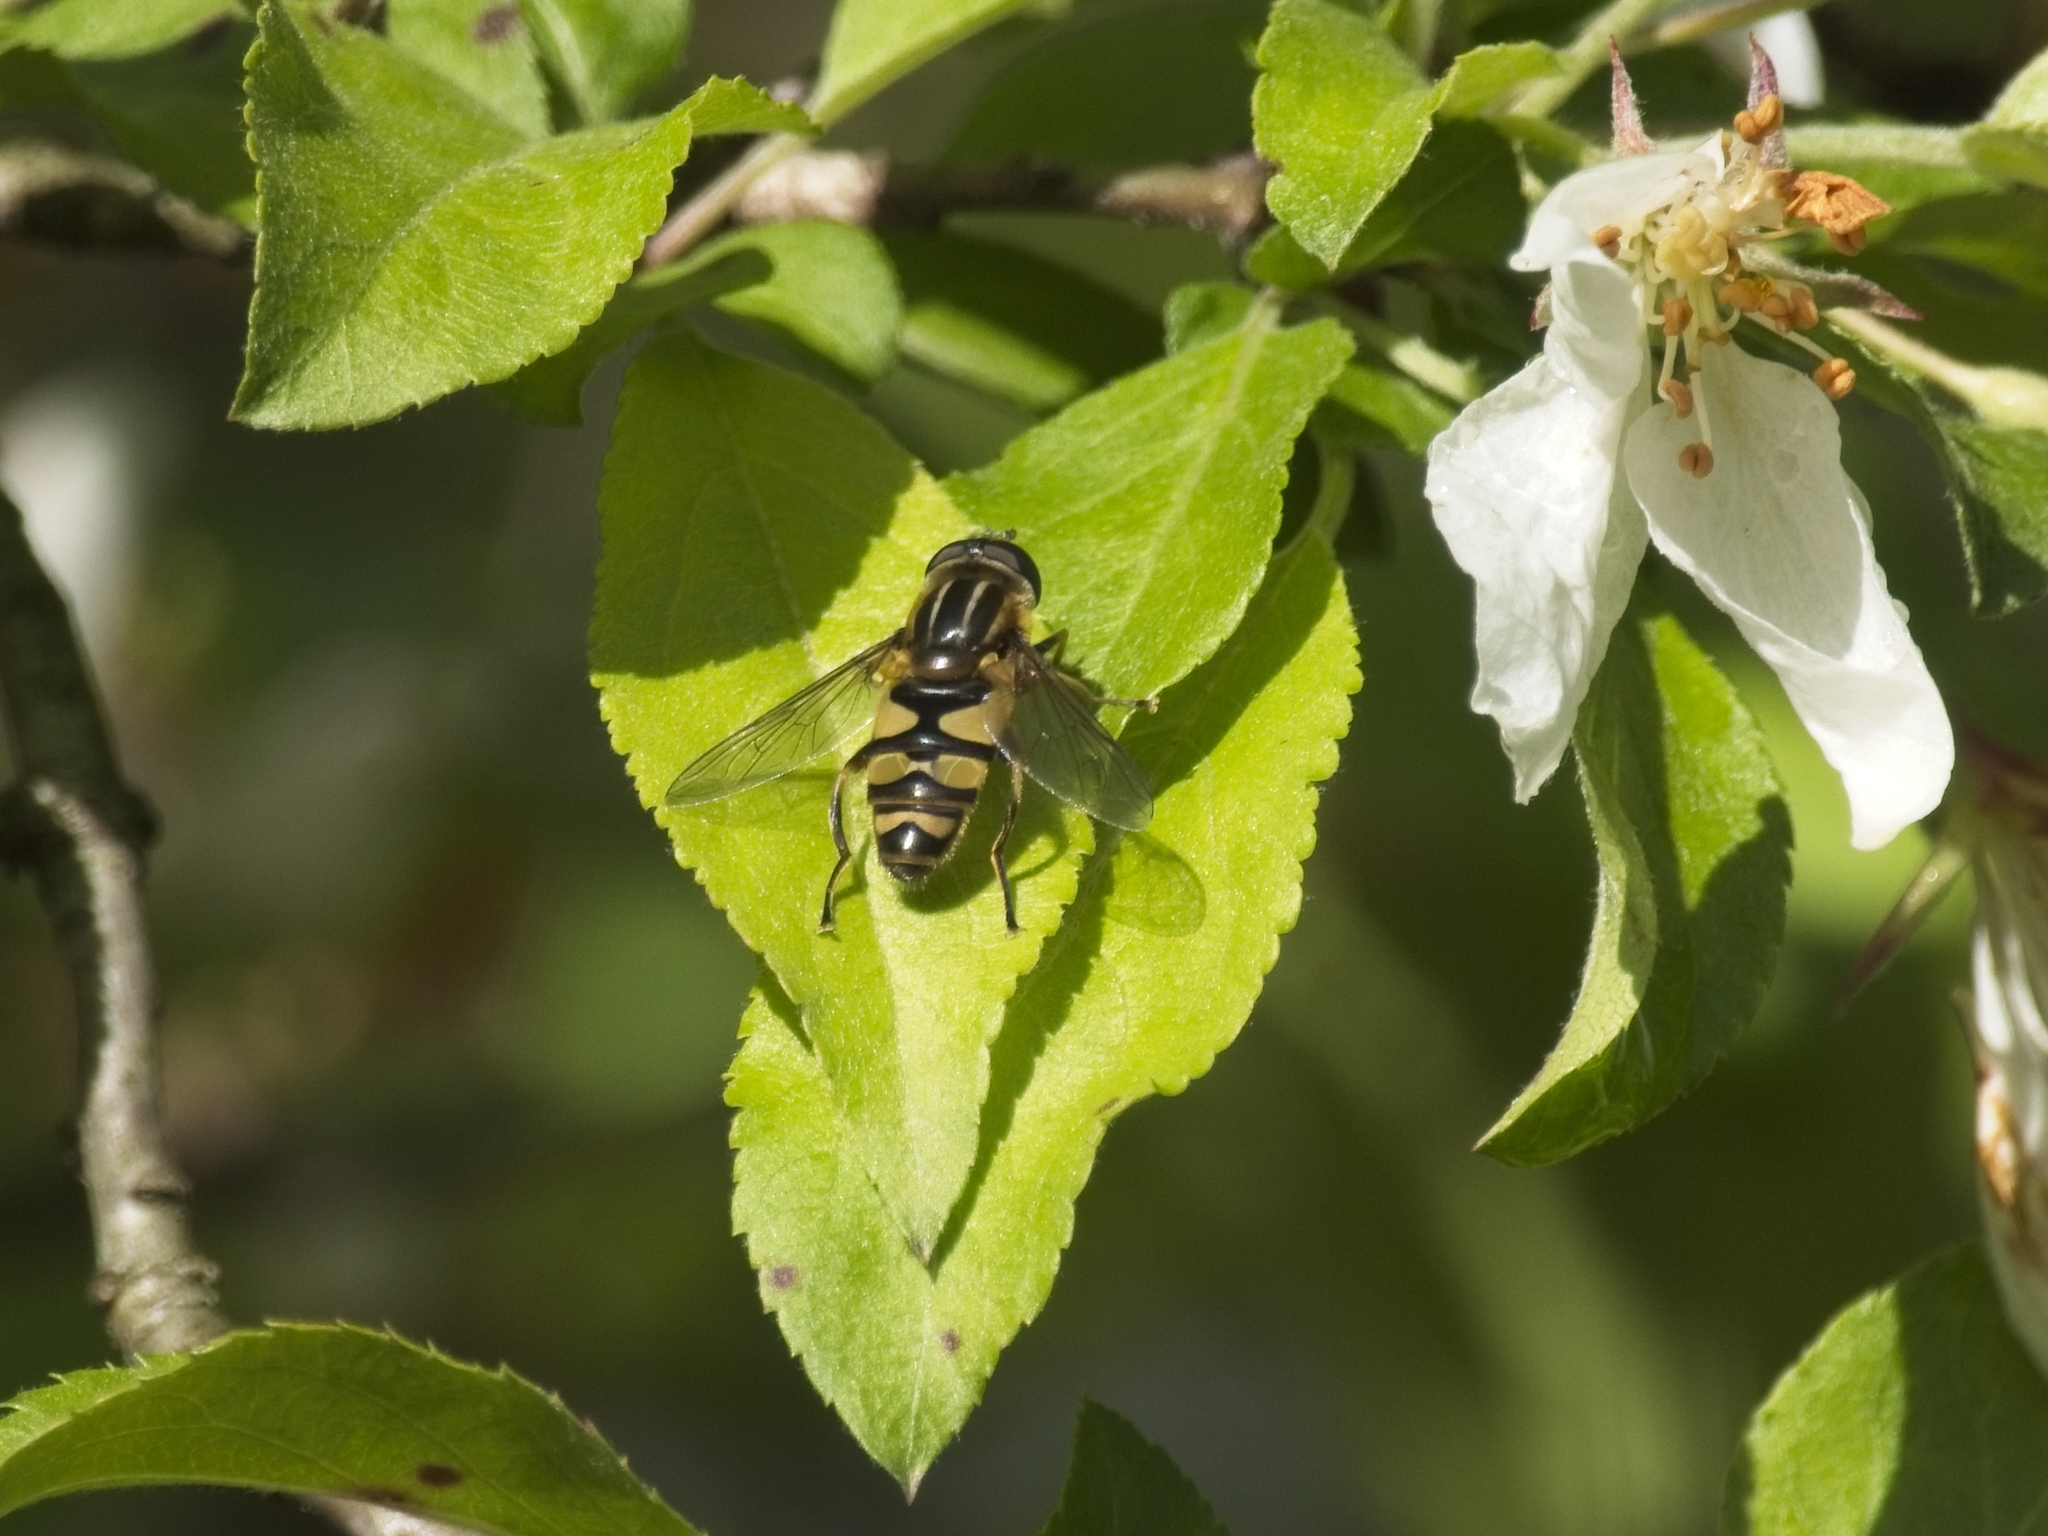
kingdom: Animalia
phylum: Arthropoda
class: Insecta
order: Diptera
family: Syrphidae
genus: Helophilus
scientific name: Helophilus fasciatus
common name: Narrow-headed marsh fly
